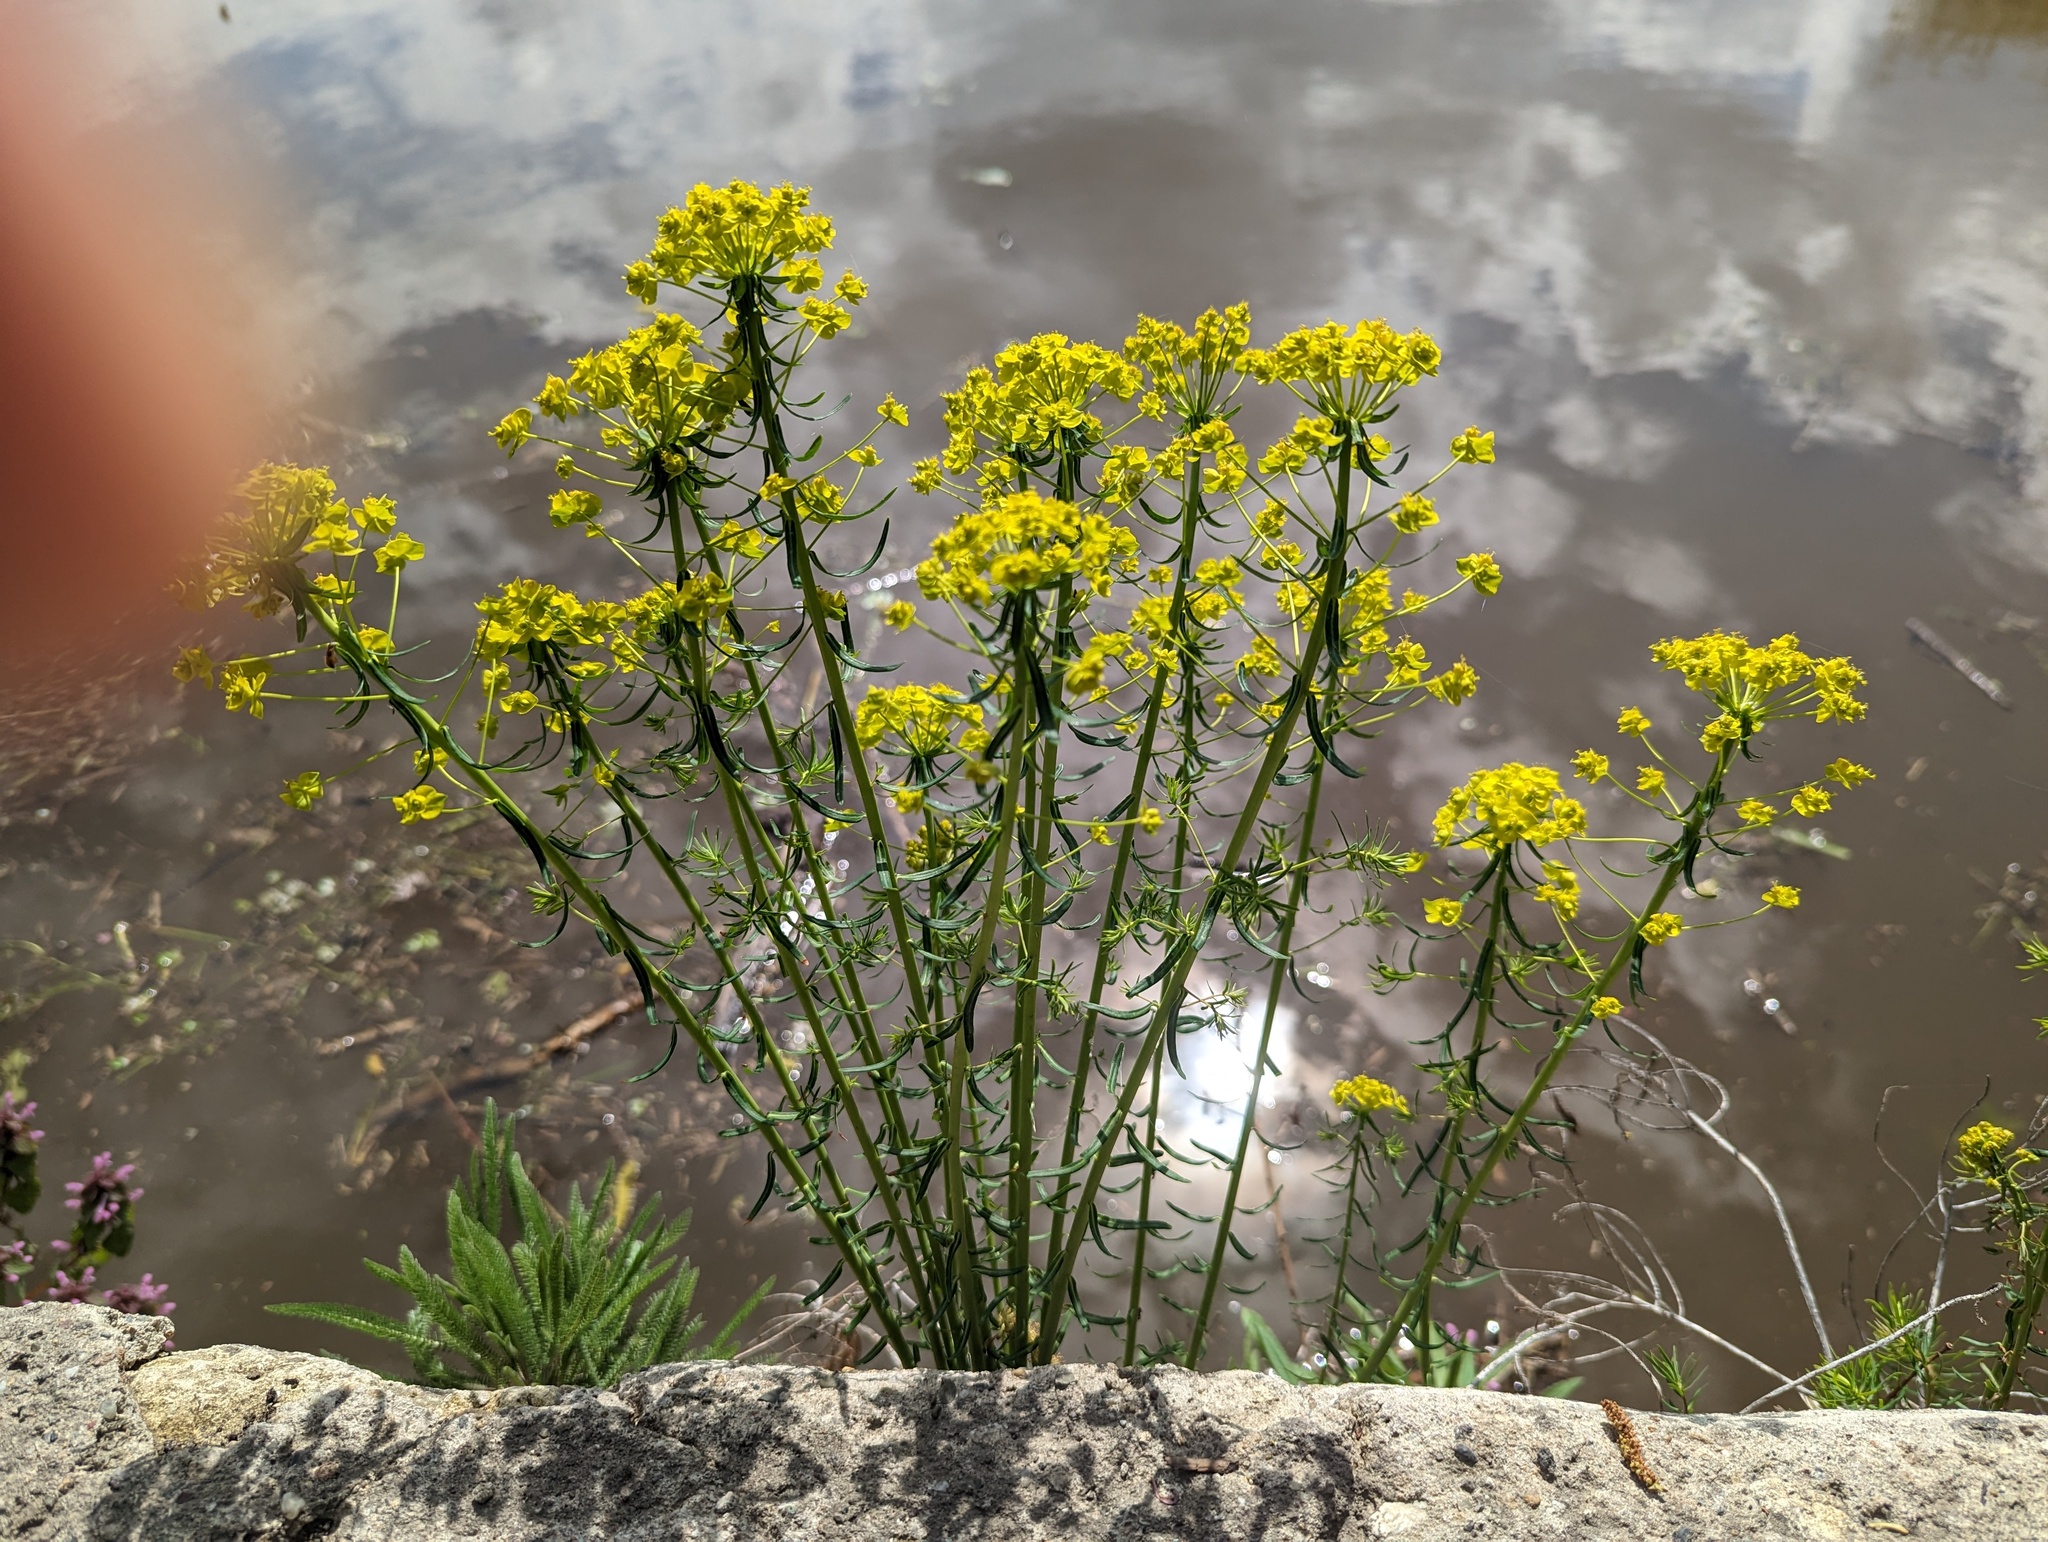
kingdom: Plantae
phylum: Tracheophyta
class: Magnoliopsida
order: Malpighiales
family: Euphorbiaceae
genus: Euphorbia
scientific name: Euphorbia cyparissias
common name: Cypress spurge
